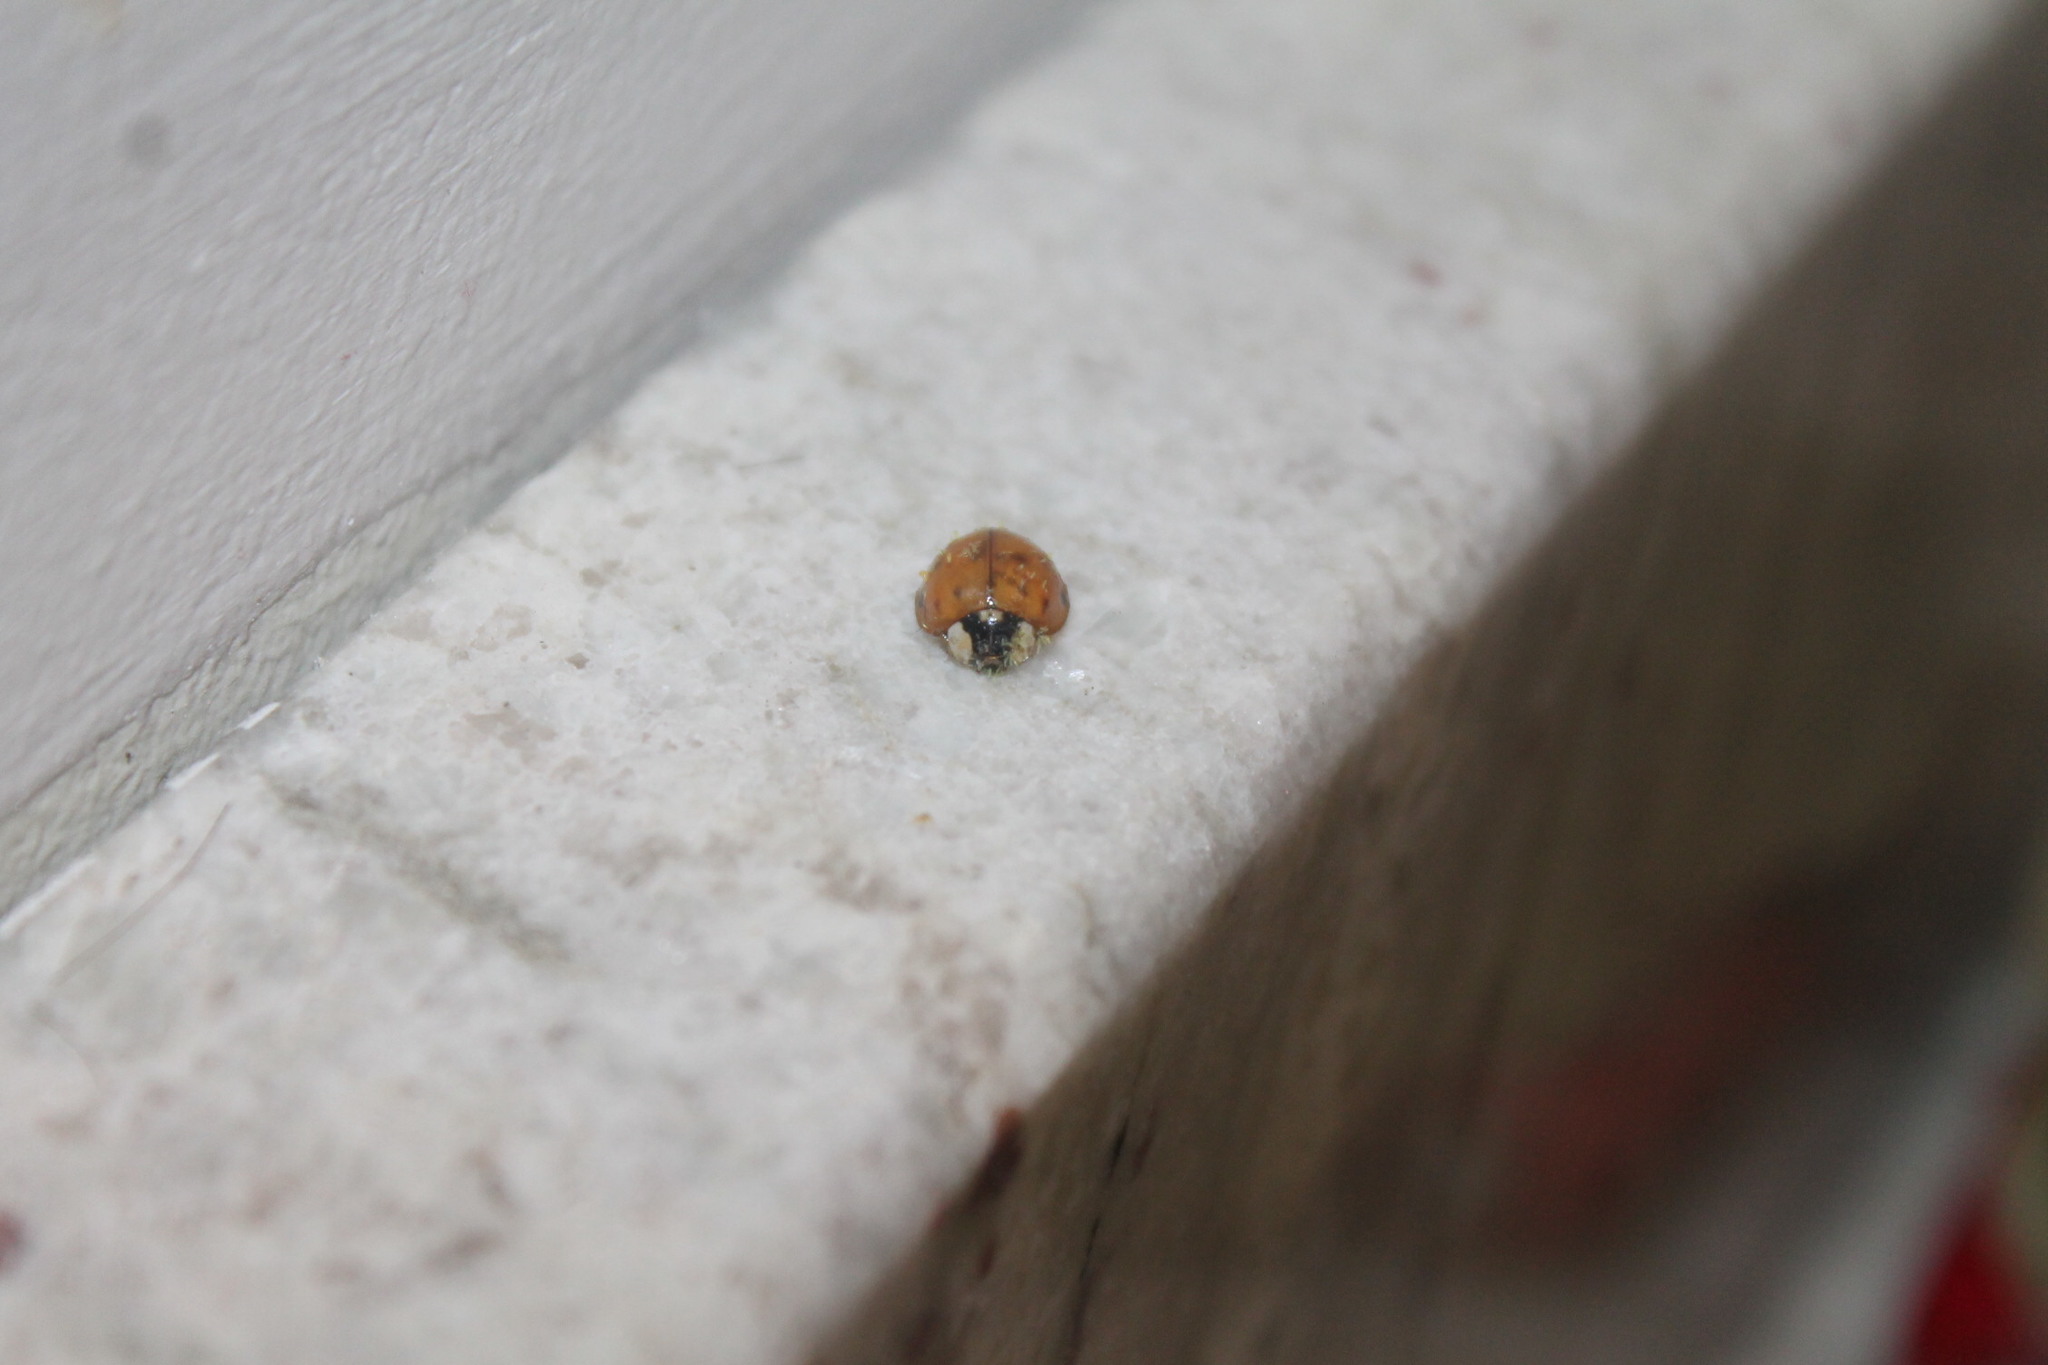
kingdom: Animalia
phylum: Arthropoda
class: Insecta
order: Coleoptera
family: Coccinellidae
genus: Harmonia
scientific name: Harmonia axyridis
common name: Harlequin ladybird
